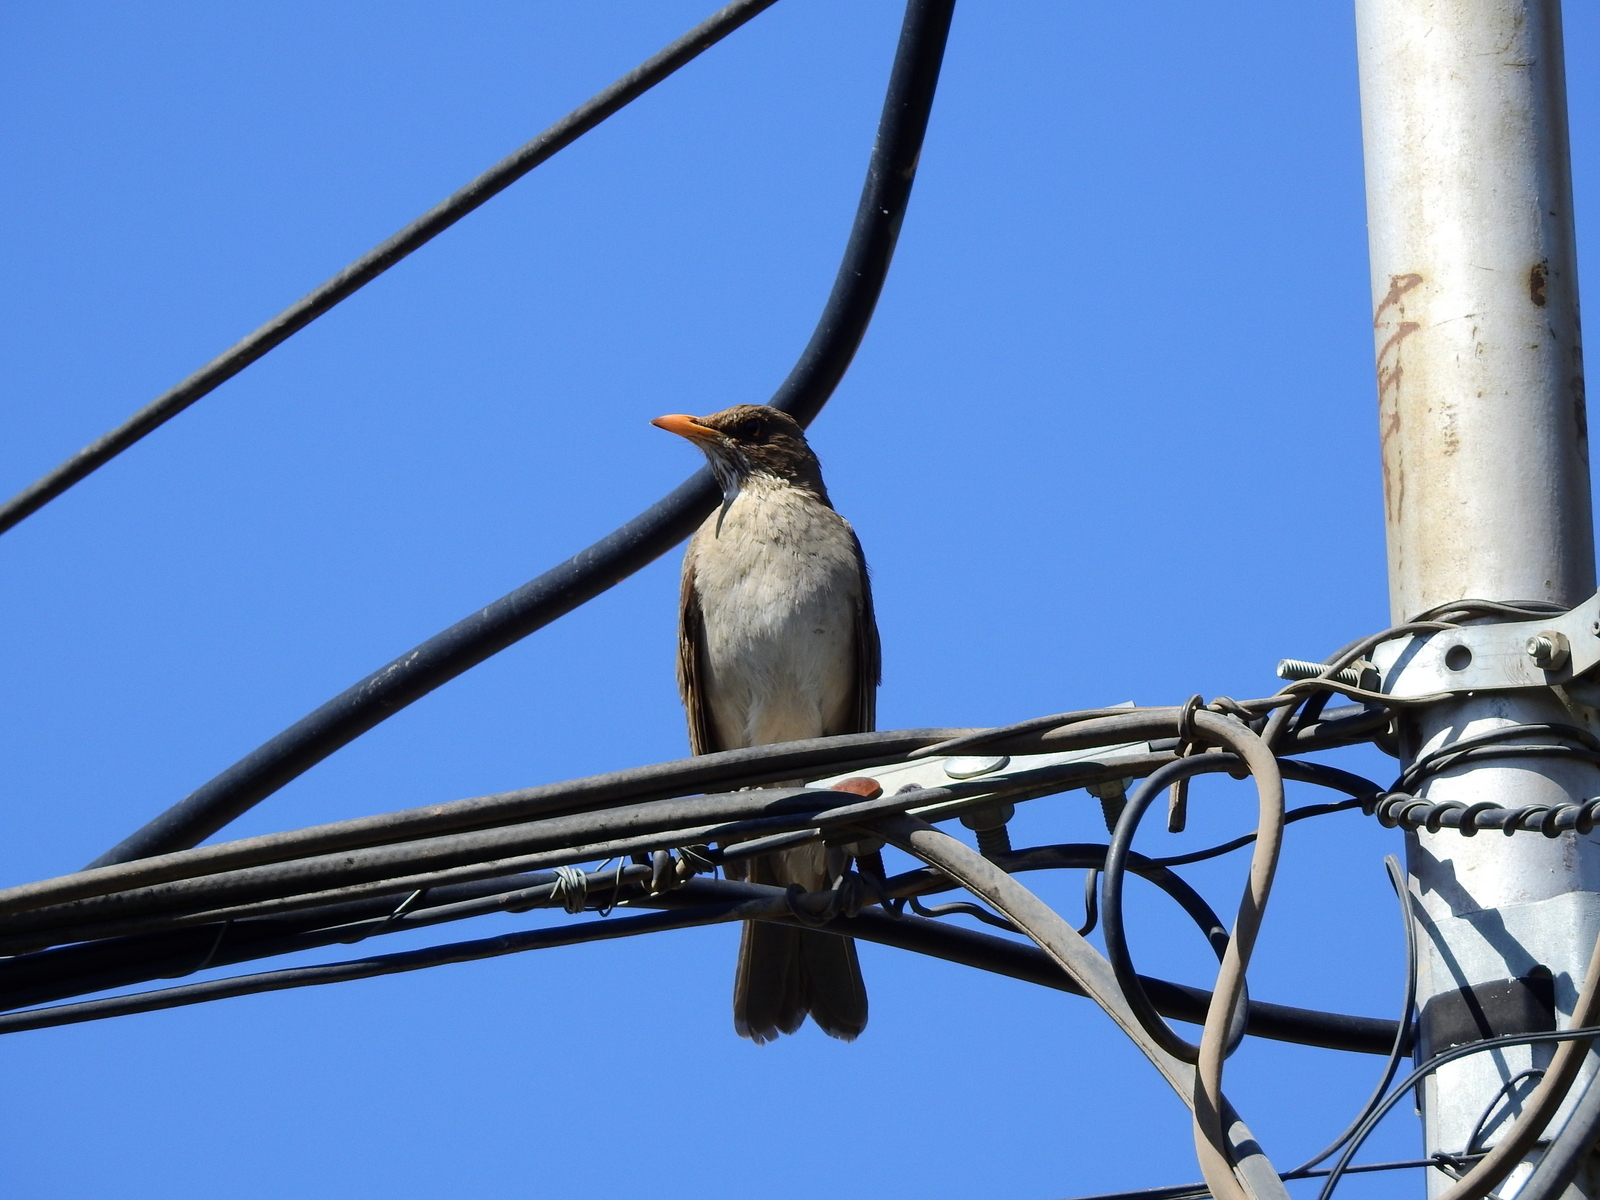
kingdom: Animalia
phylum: Chordata
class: Aves
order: Passeriformes
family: Turdidae
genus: Turdus
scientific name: Turdus amaurochalinus
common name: Creamy-bellied thrush
